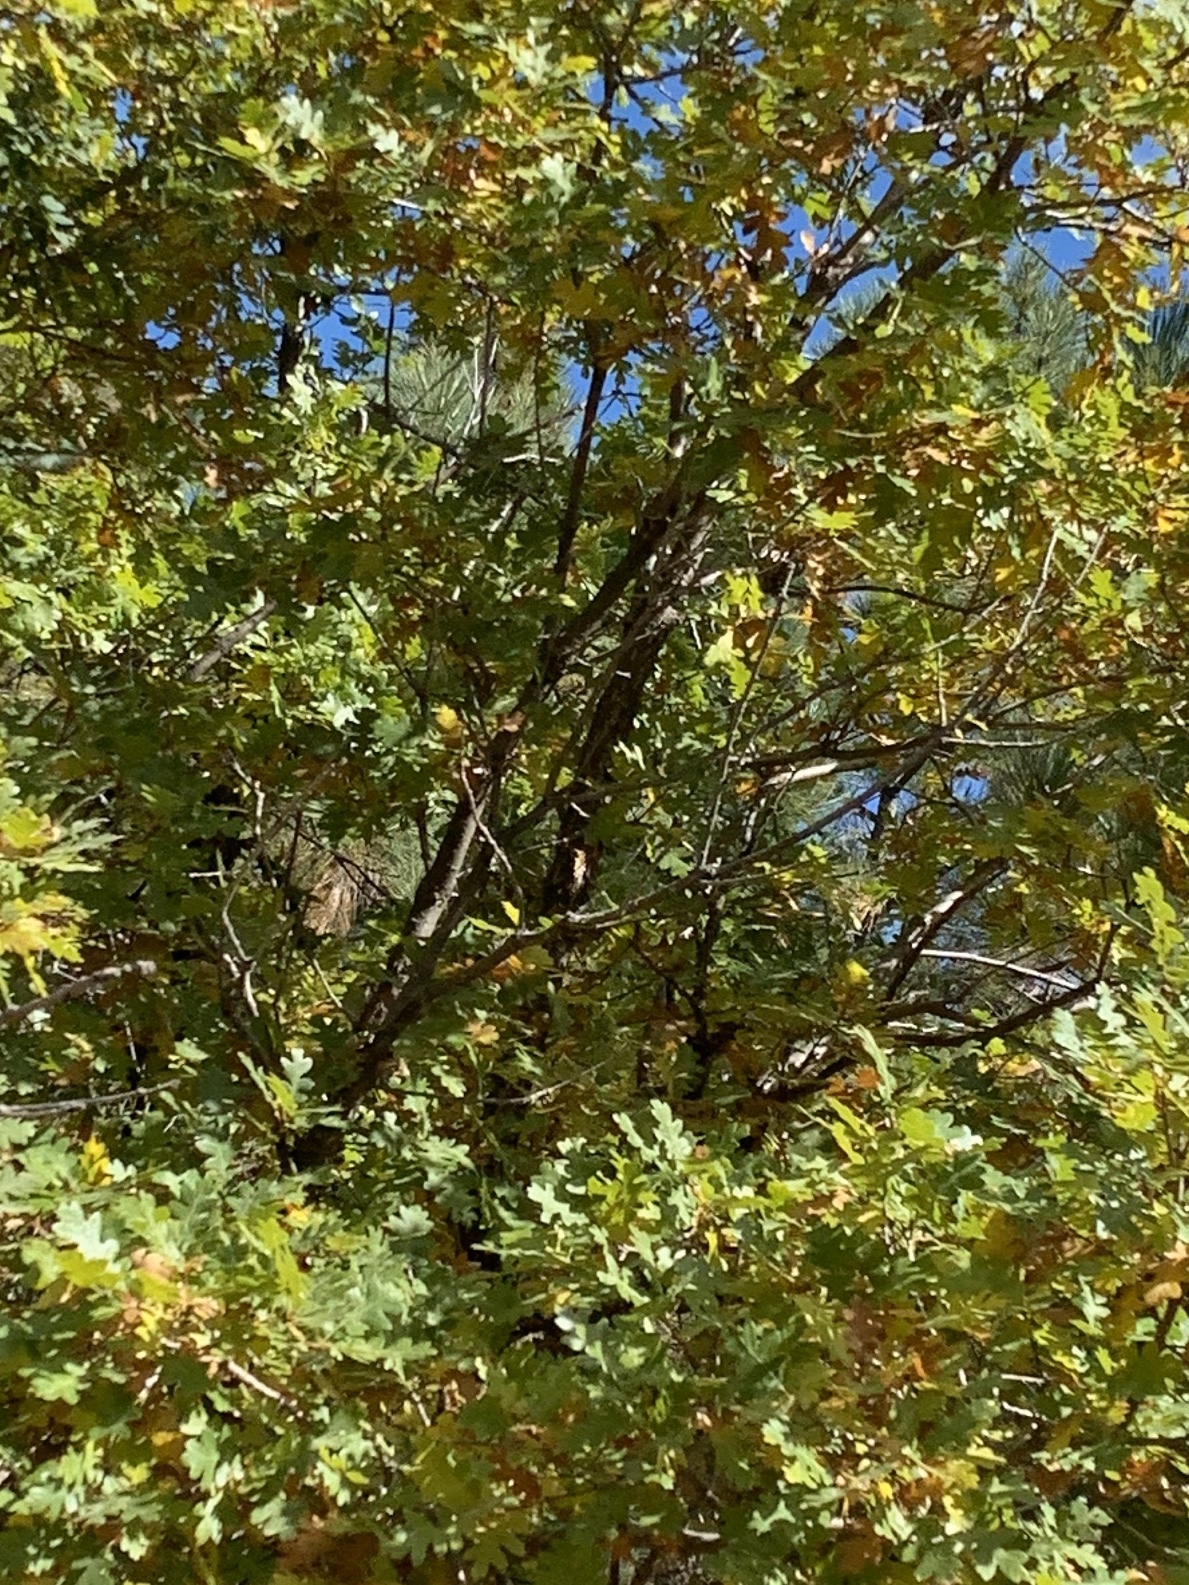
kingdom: Plantae
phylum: Tracheophyta
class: Magnoliopsida
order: Fagales
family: Fagaceae
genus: Quercus
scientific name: Quercus gambelii
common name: Gambel oak
